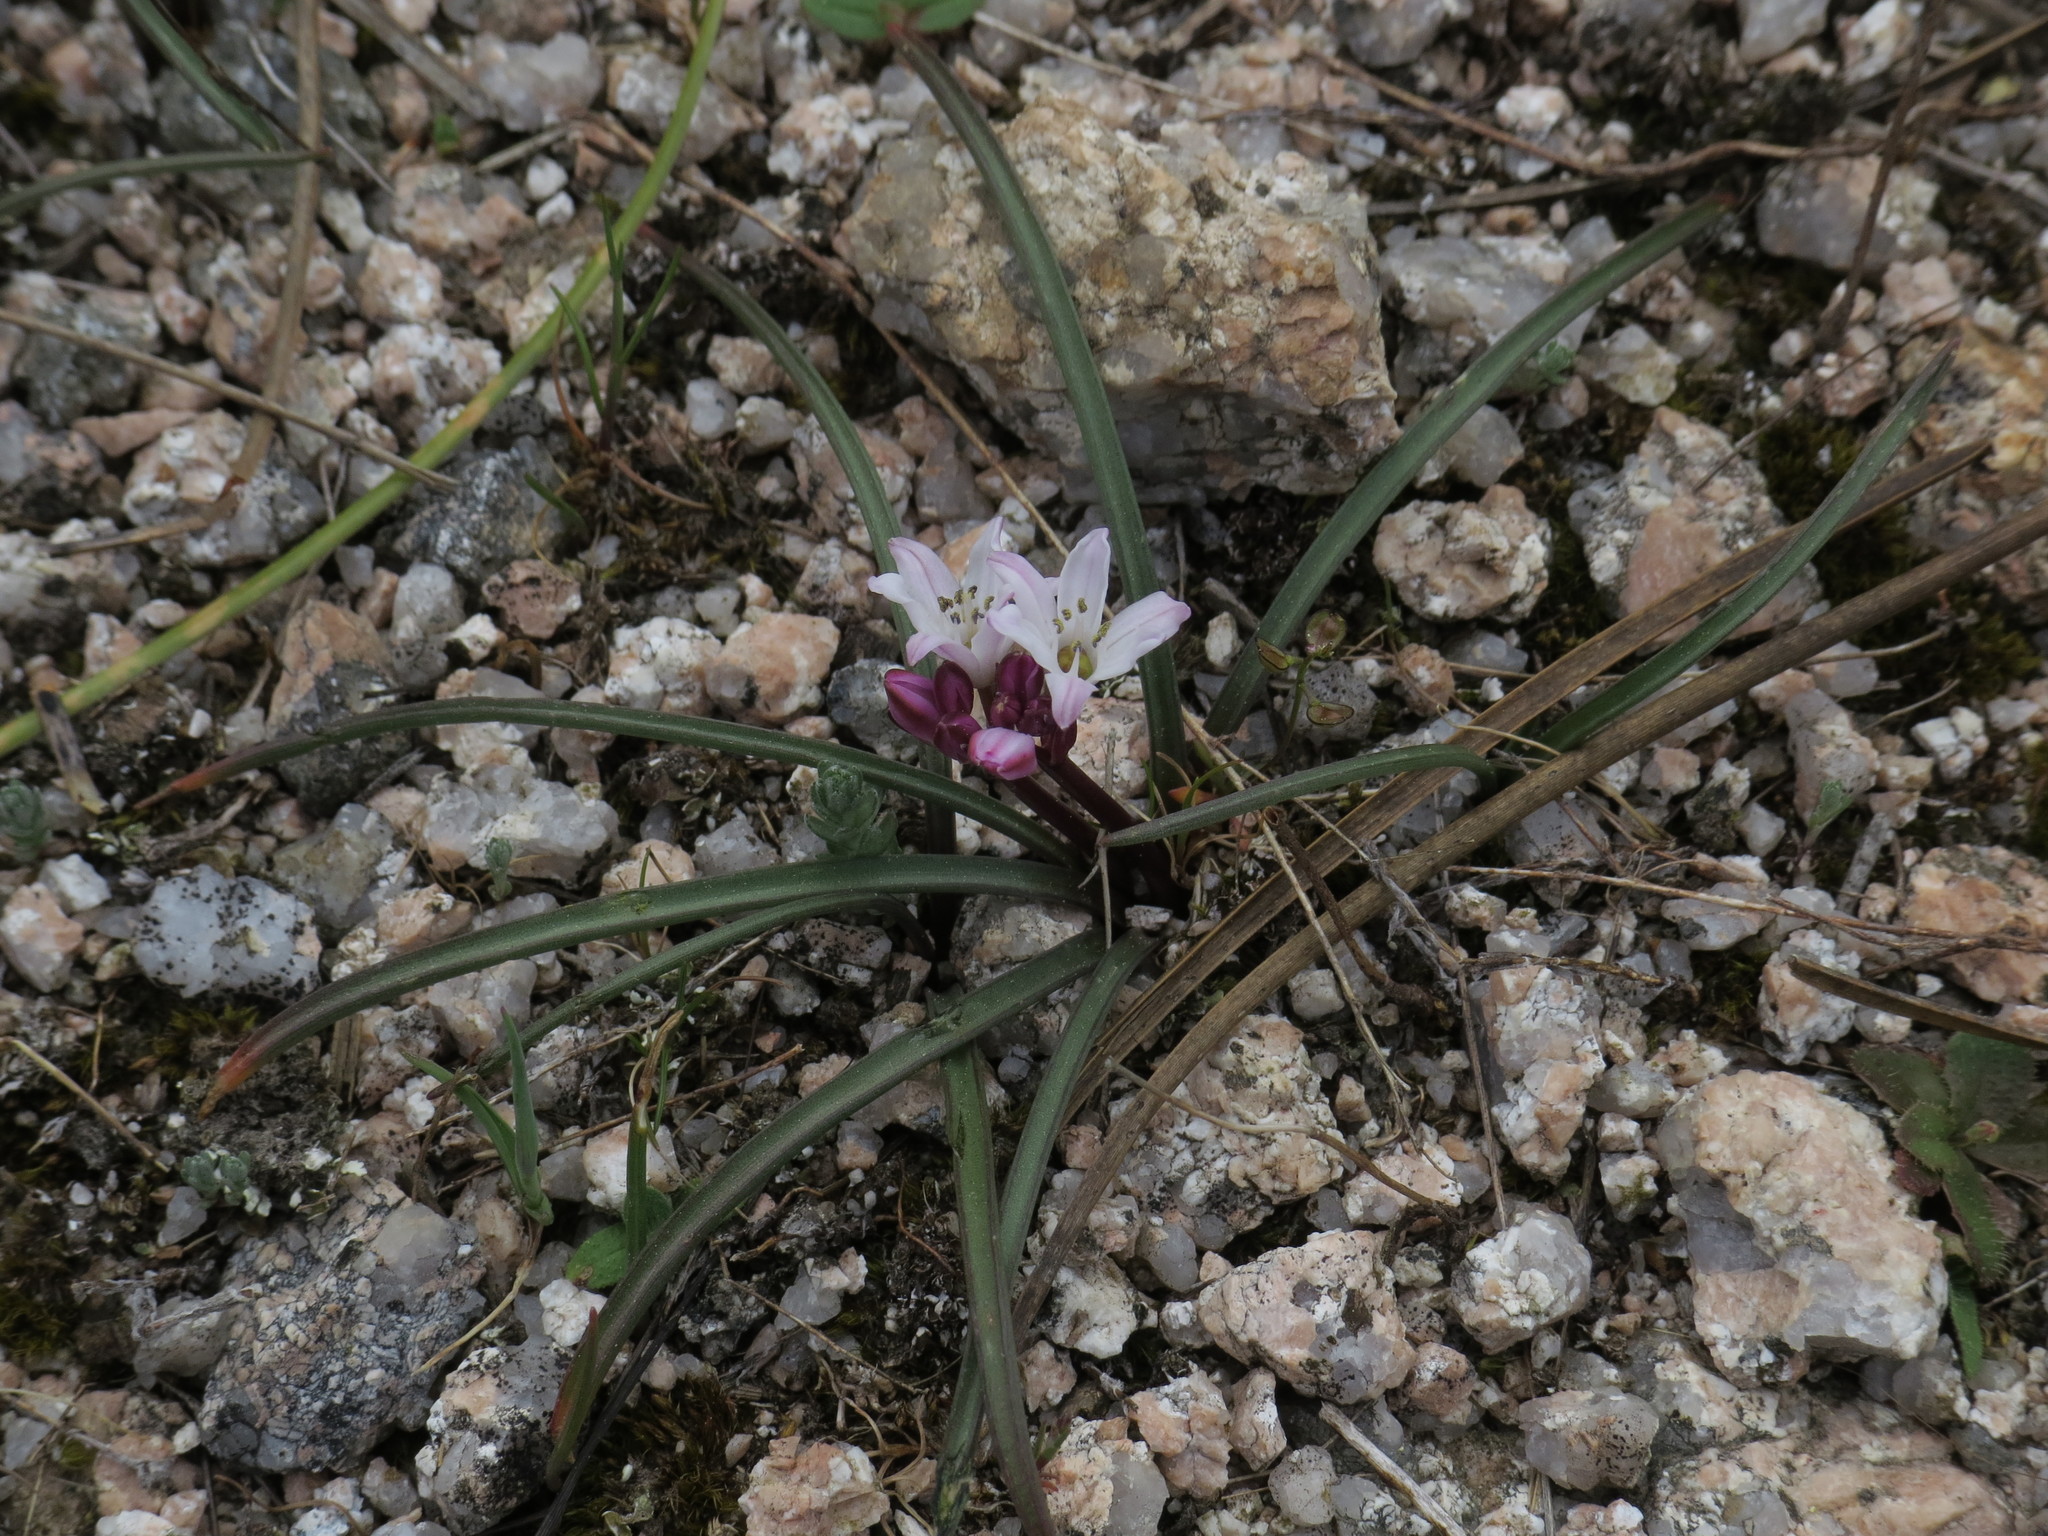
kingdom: Plantae
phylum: Tracheophyta
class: Liliopsida
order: Asparagales
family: Asparagaceae
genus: Brimeura
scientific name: Brimeura fastigiata
